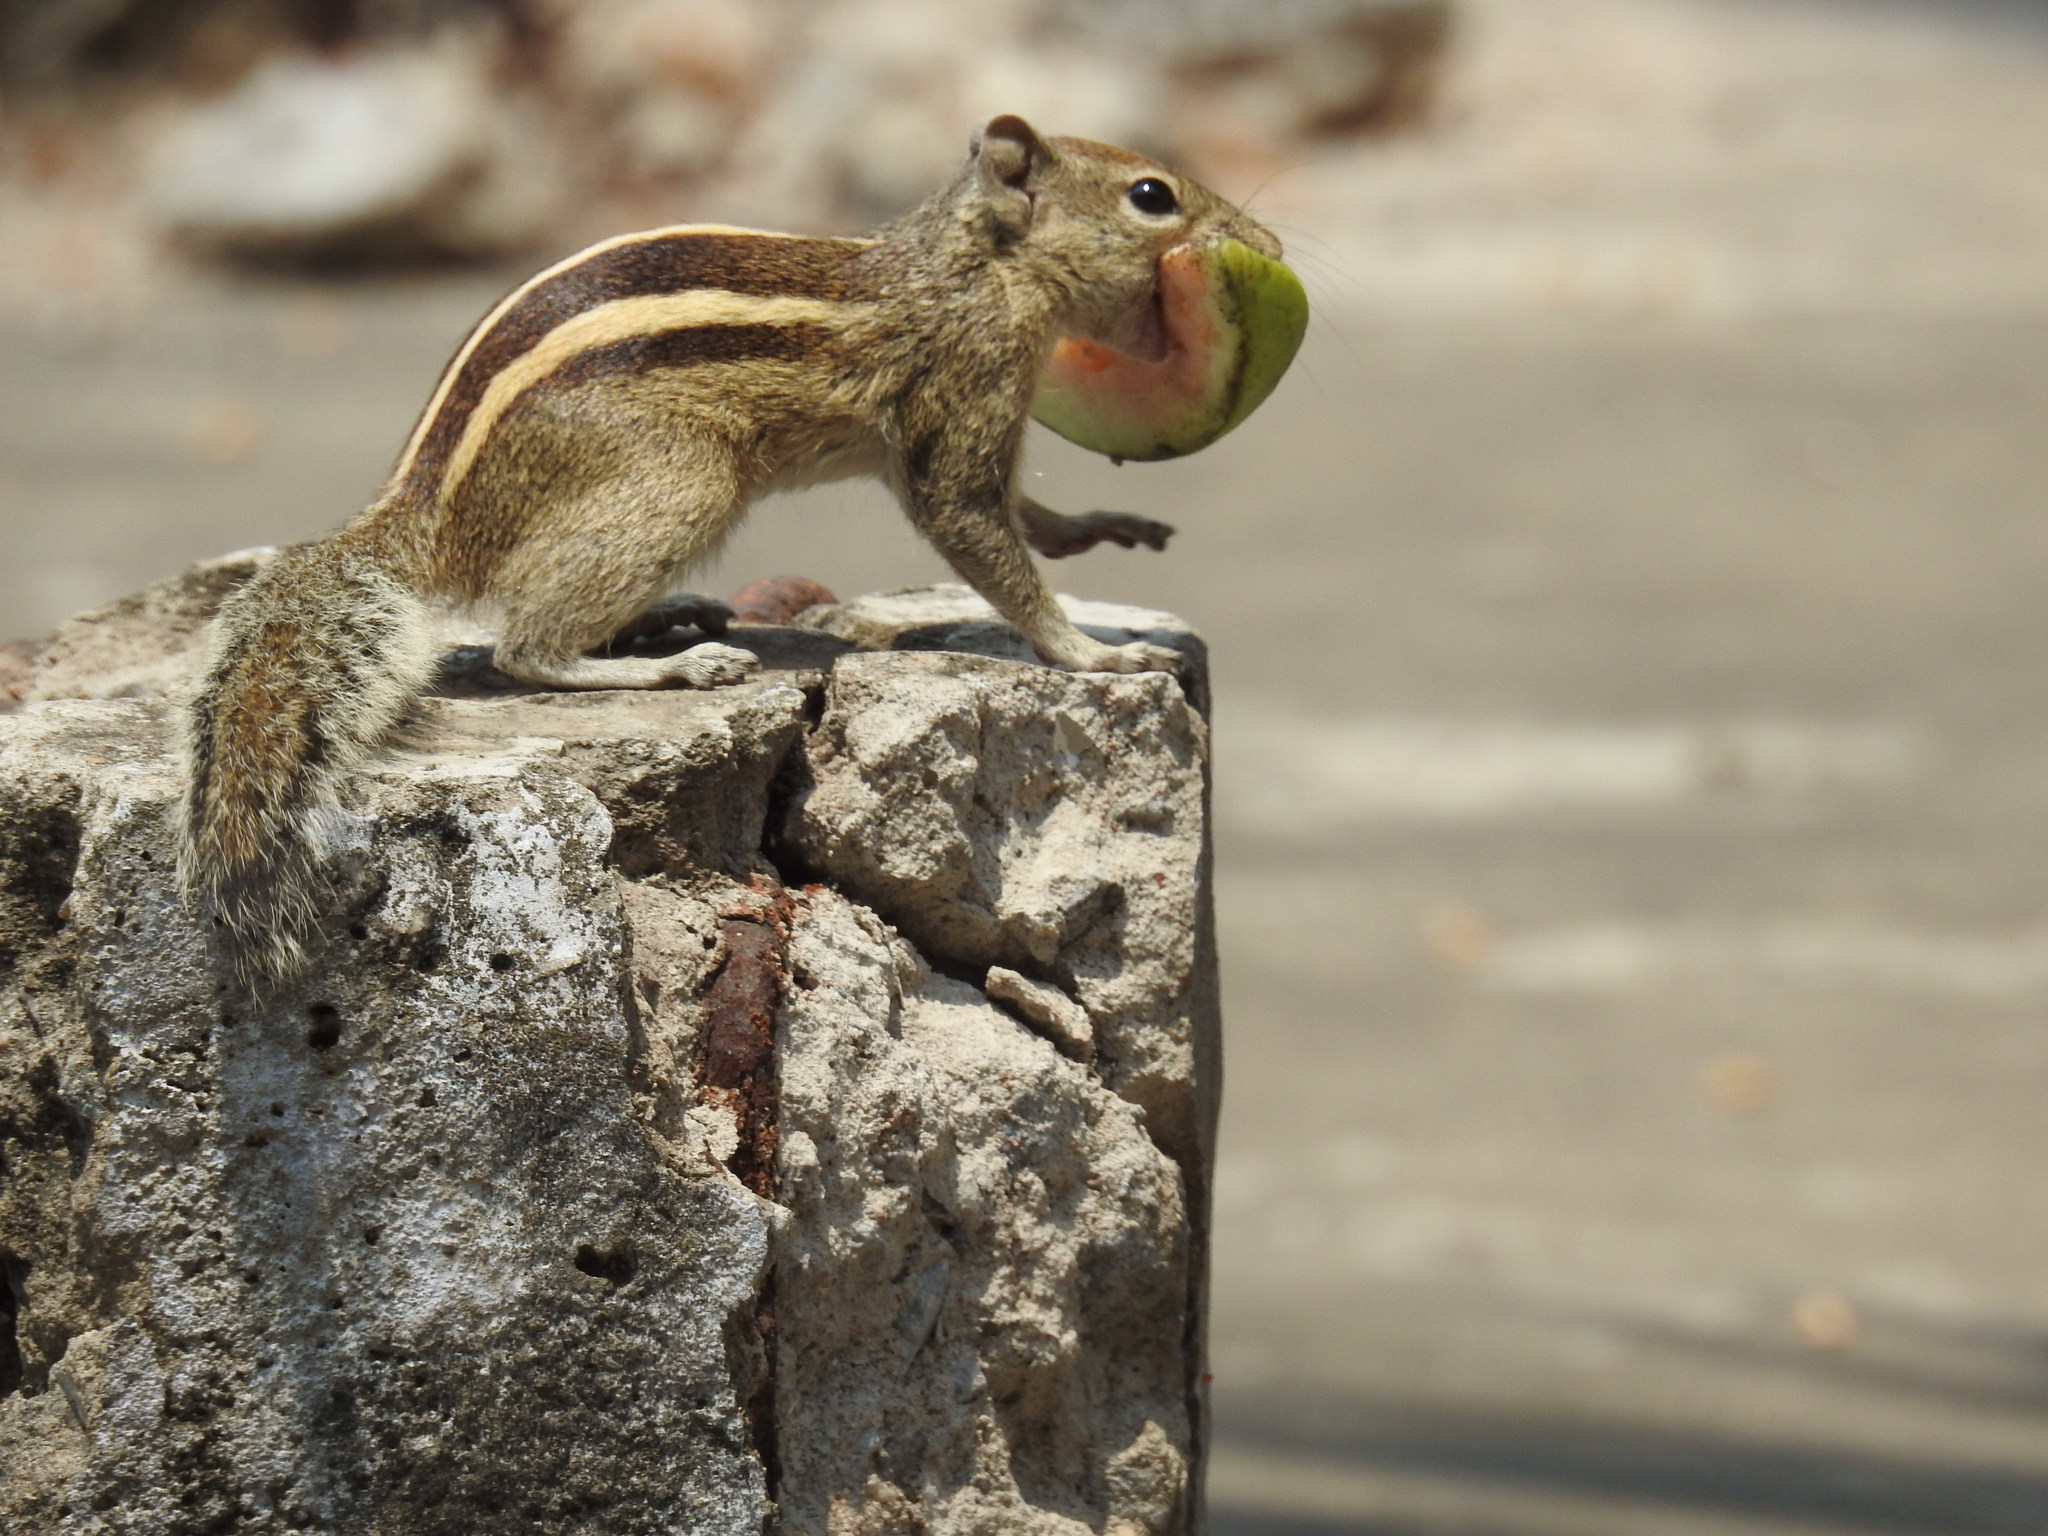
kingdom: Animalia
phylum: Chordata
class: Mammalia
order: Rodentia
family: Sciuridae
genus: Funambulus
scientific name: Funambulus palmarum
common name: Indian palm squirrel
